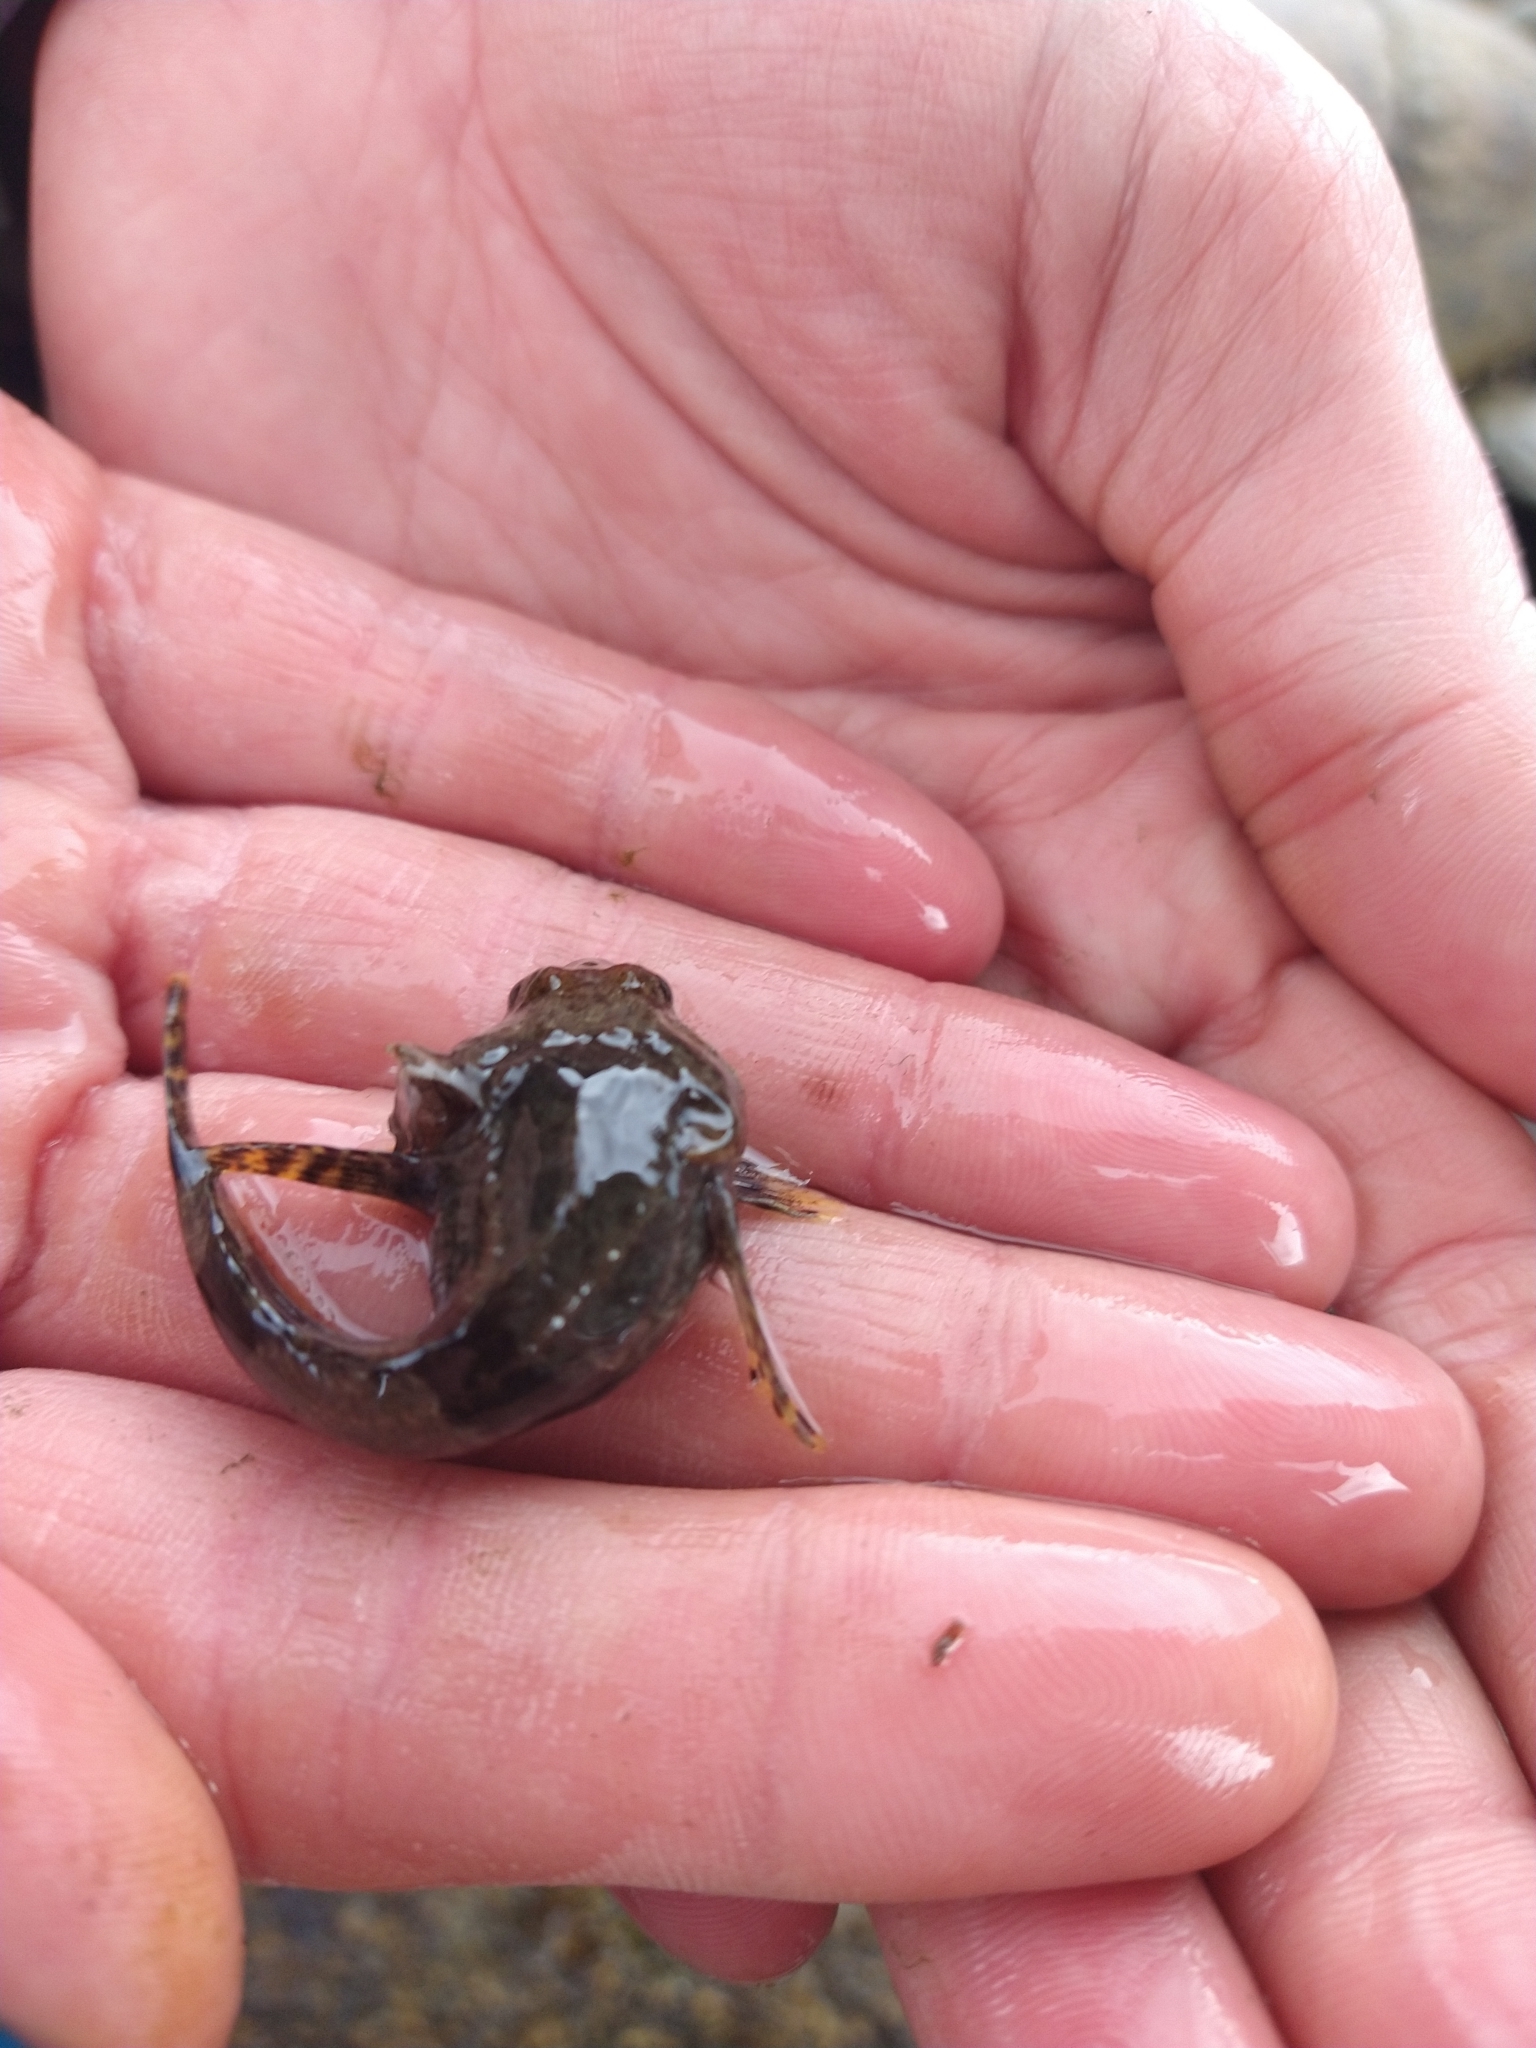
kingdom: Animalia
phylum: Chordata
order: Perciformes
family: Harpagiferidae
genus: Harpagifer
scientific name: Harpagifer bispinis
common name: Magellan plunderfish
